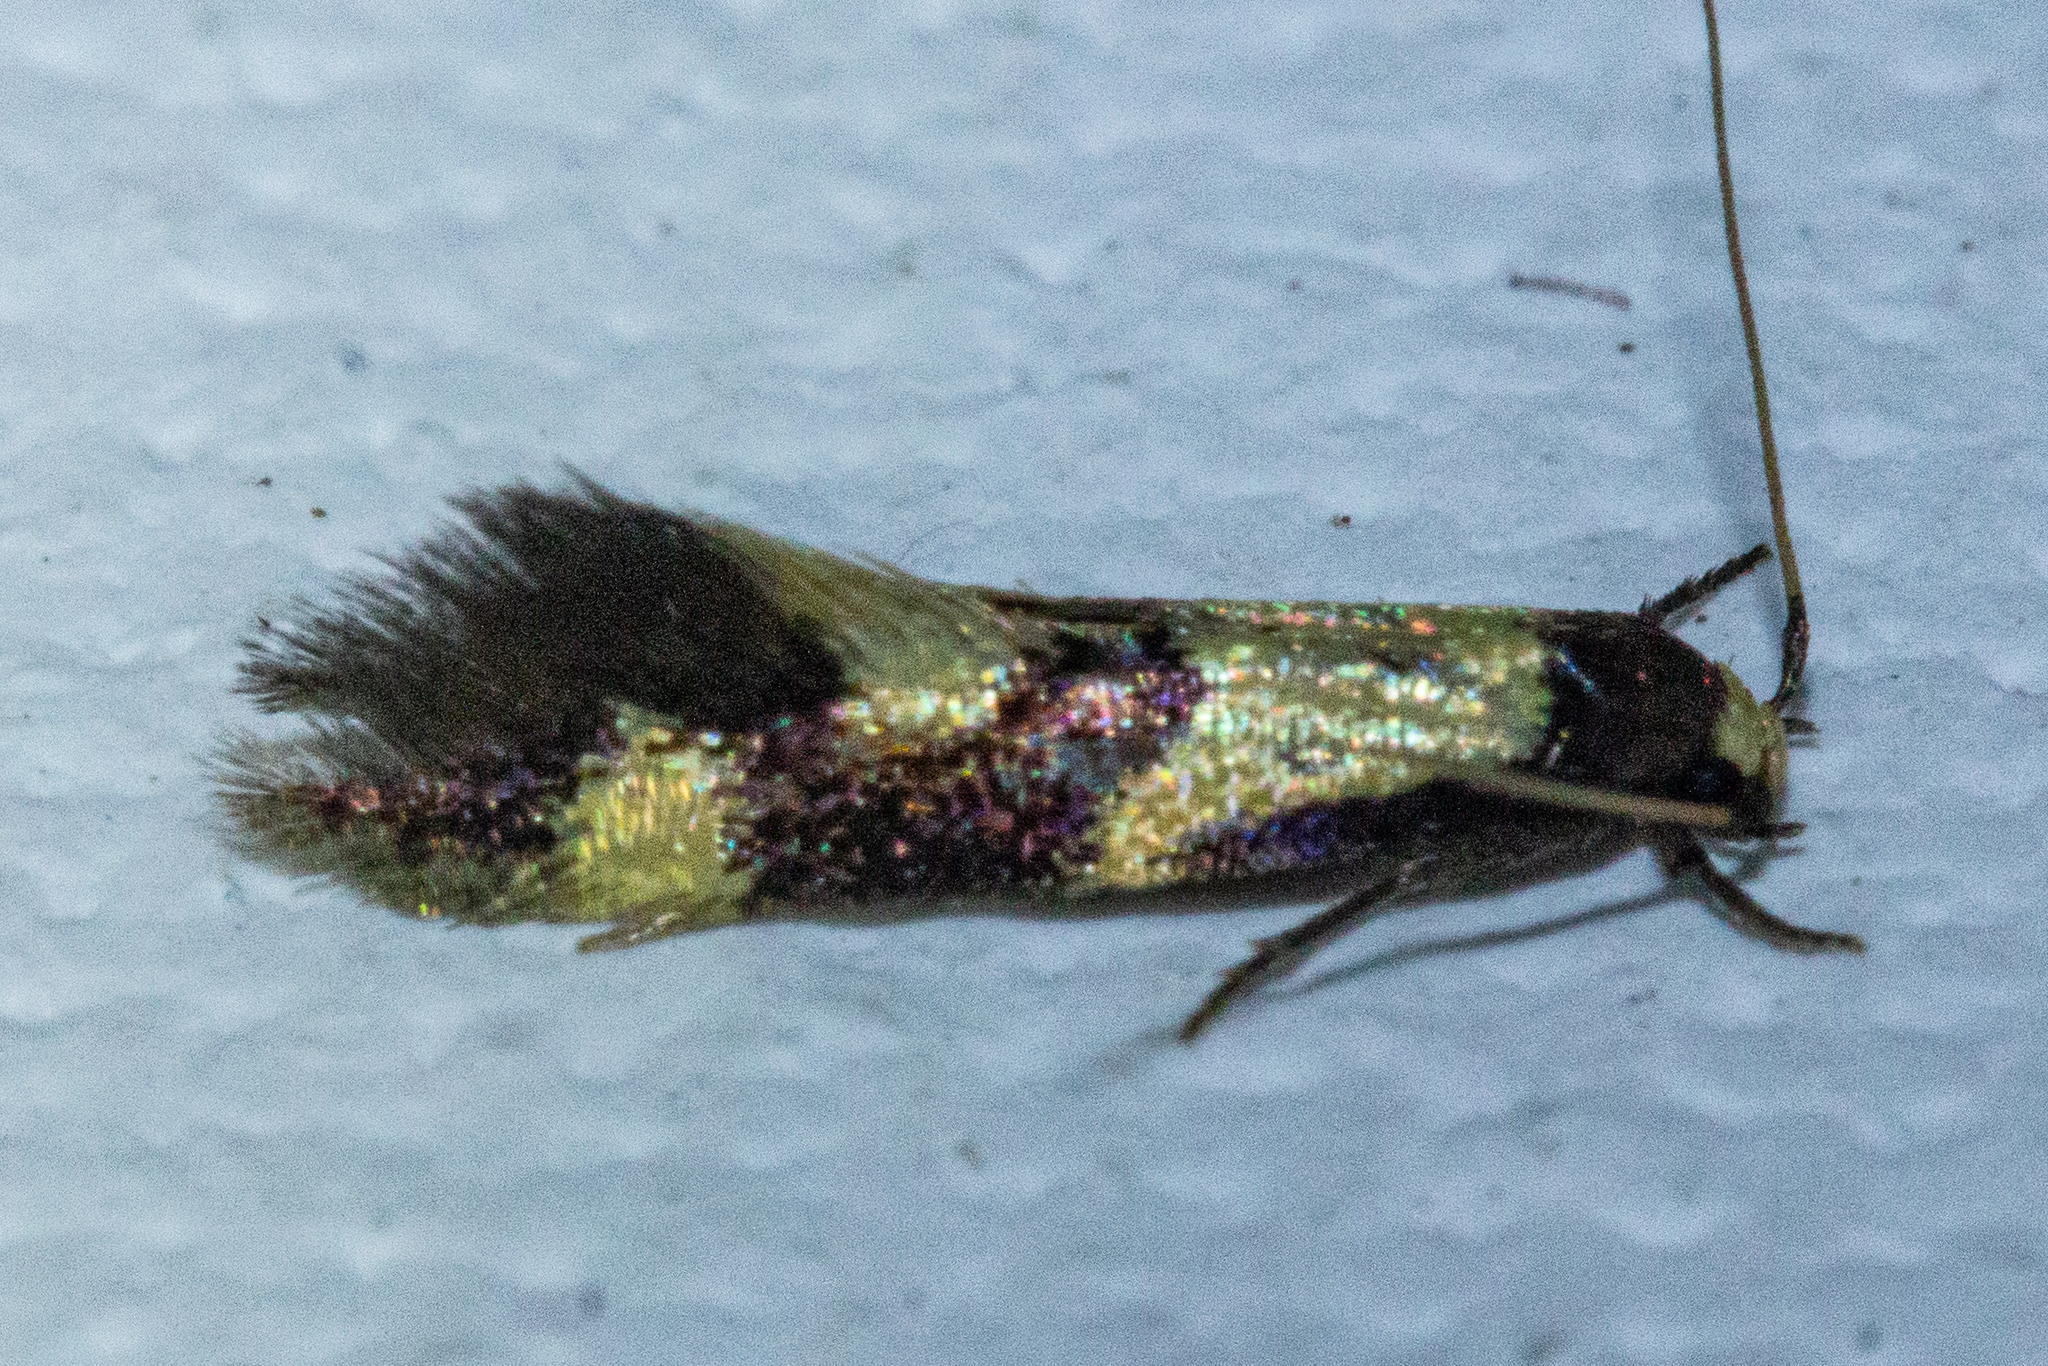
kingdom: Animalia
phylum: Arthropoda
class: Insecta
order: Lepidoptera
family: Tineidae
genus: Opogona
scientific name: Opogona comptella
